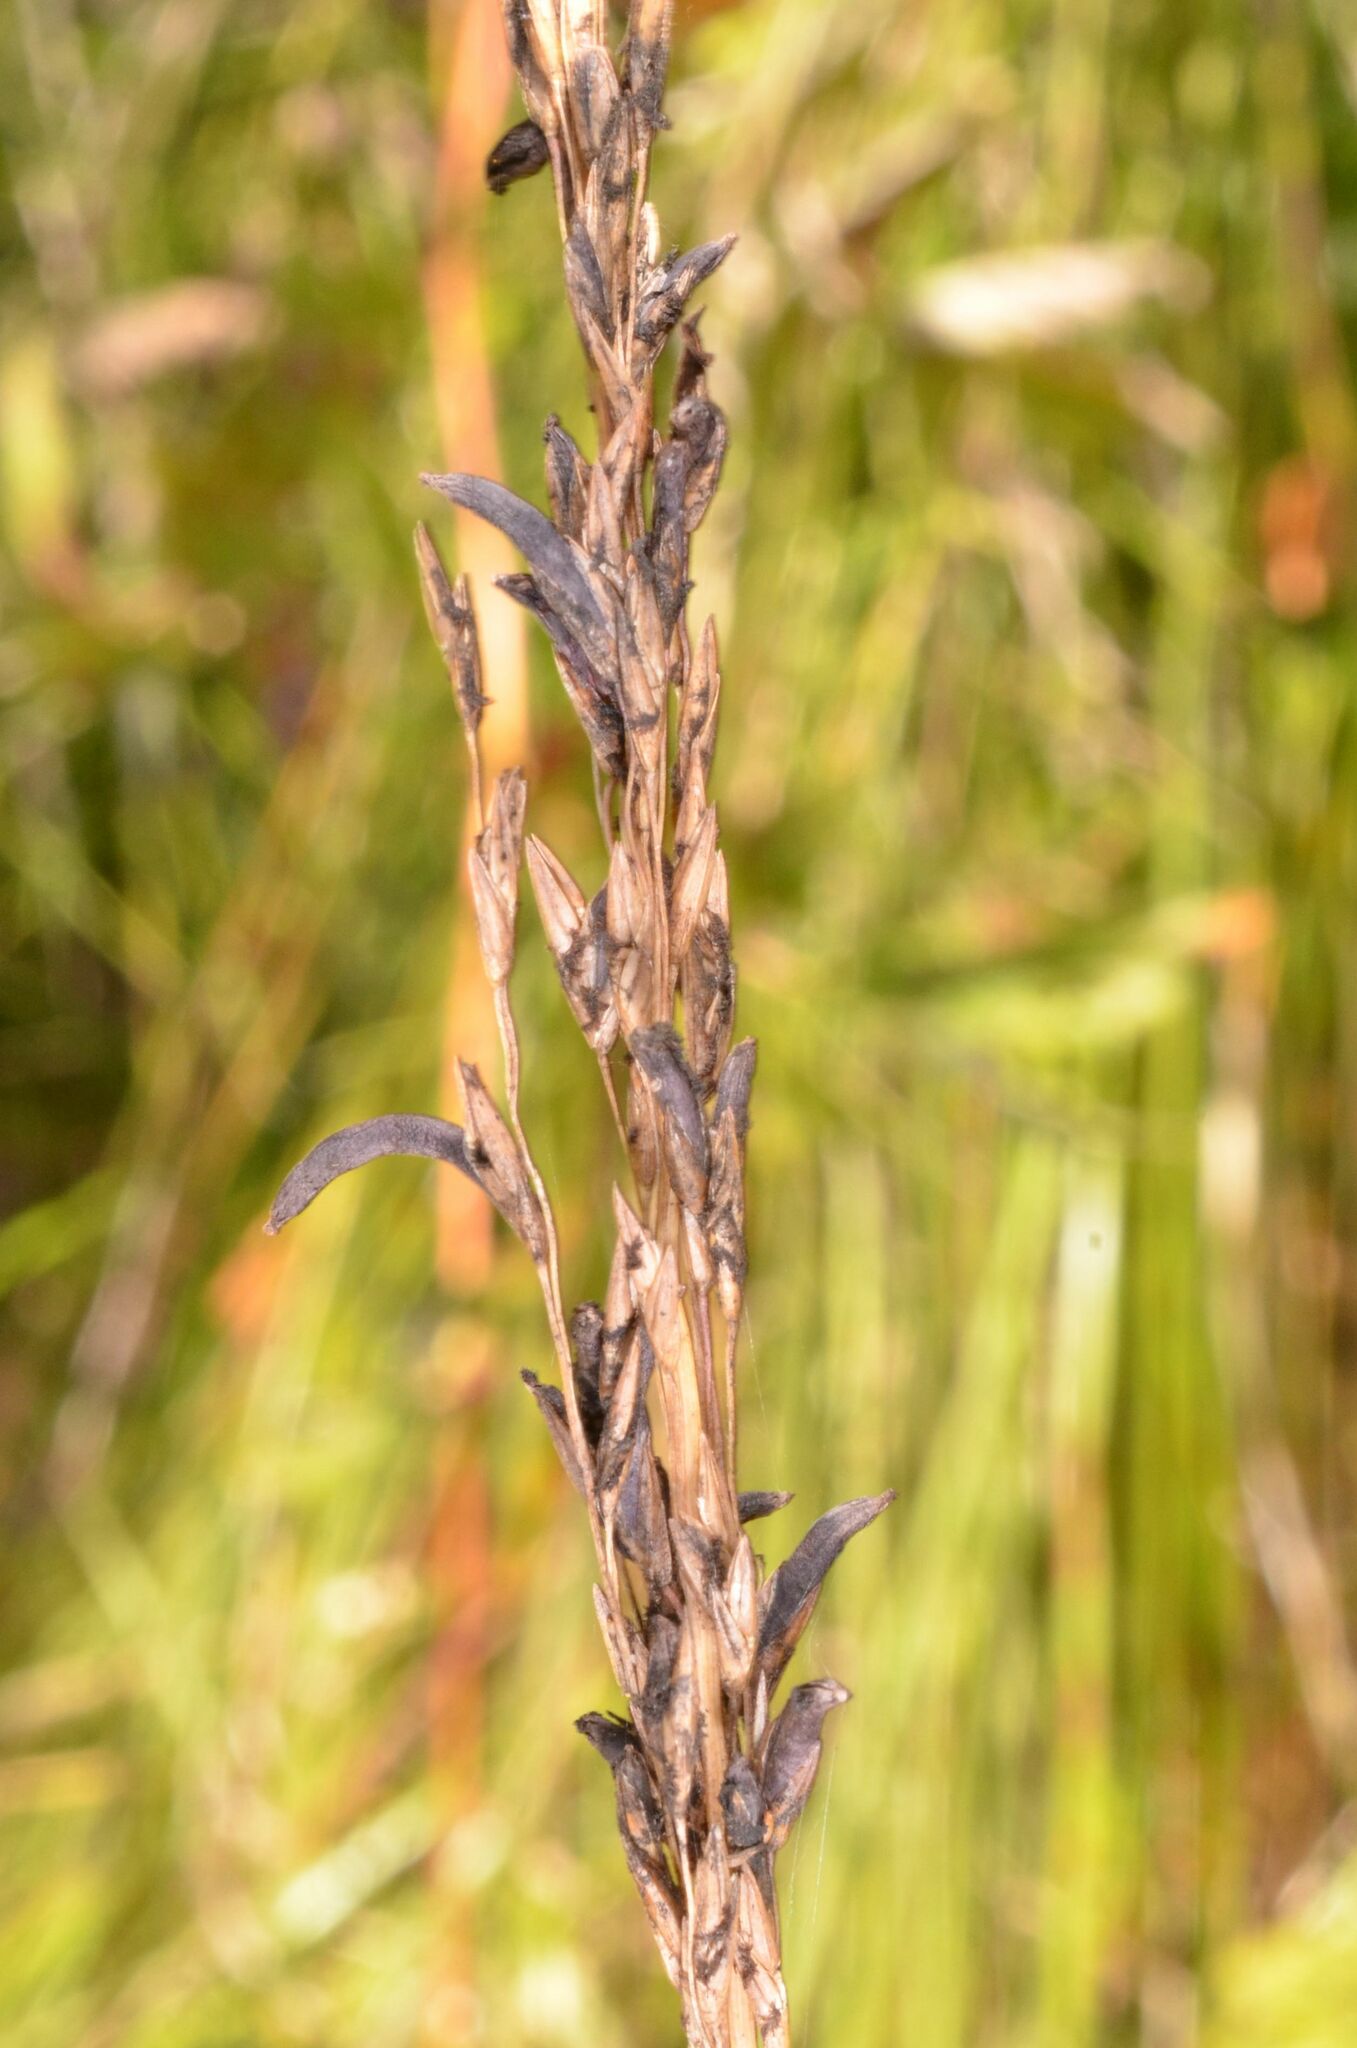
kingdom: Fungi
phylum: Ascomycota
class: Sordariomycetes
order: Hypocreales
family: Clavicipitaceae
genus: Claviceps
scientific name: Claviceps arundinis
